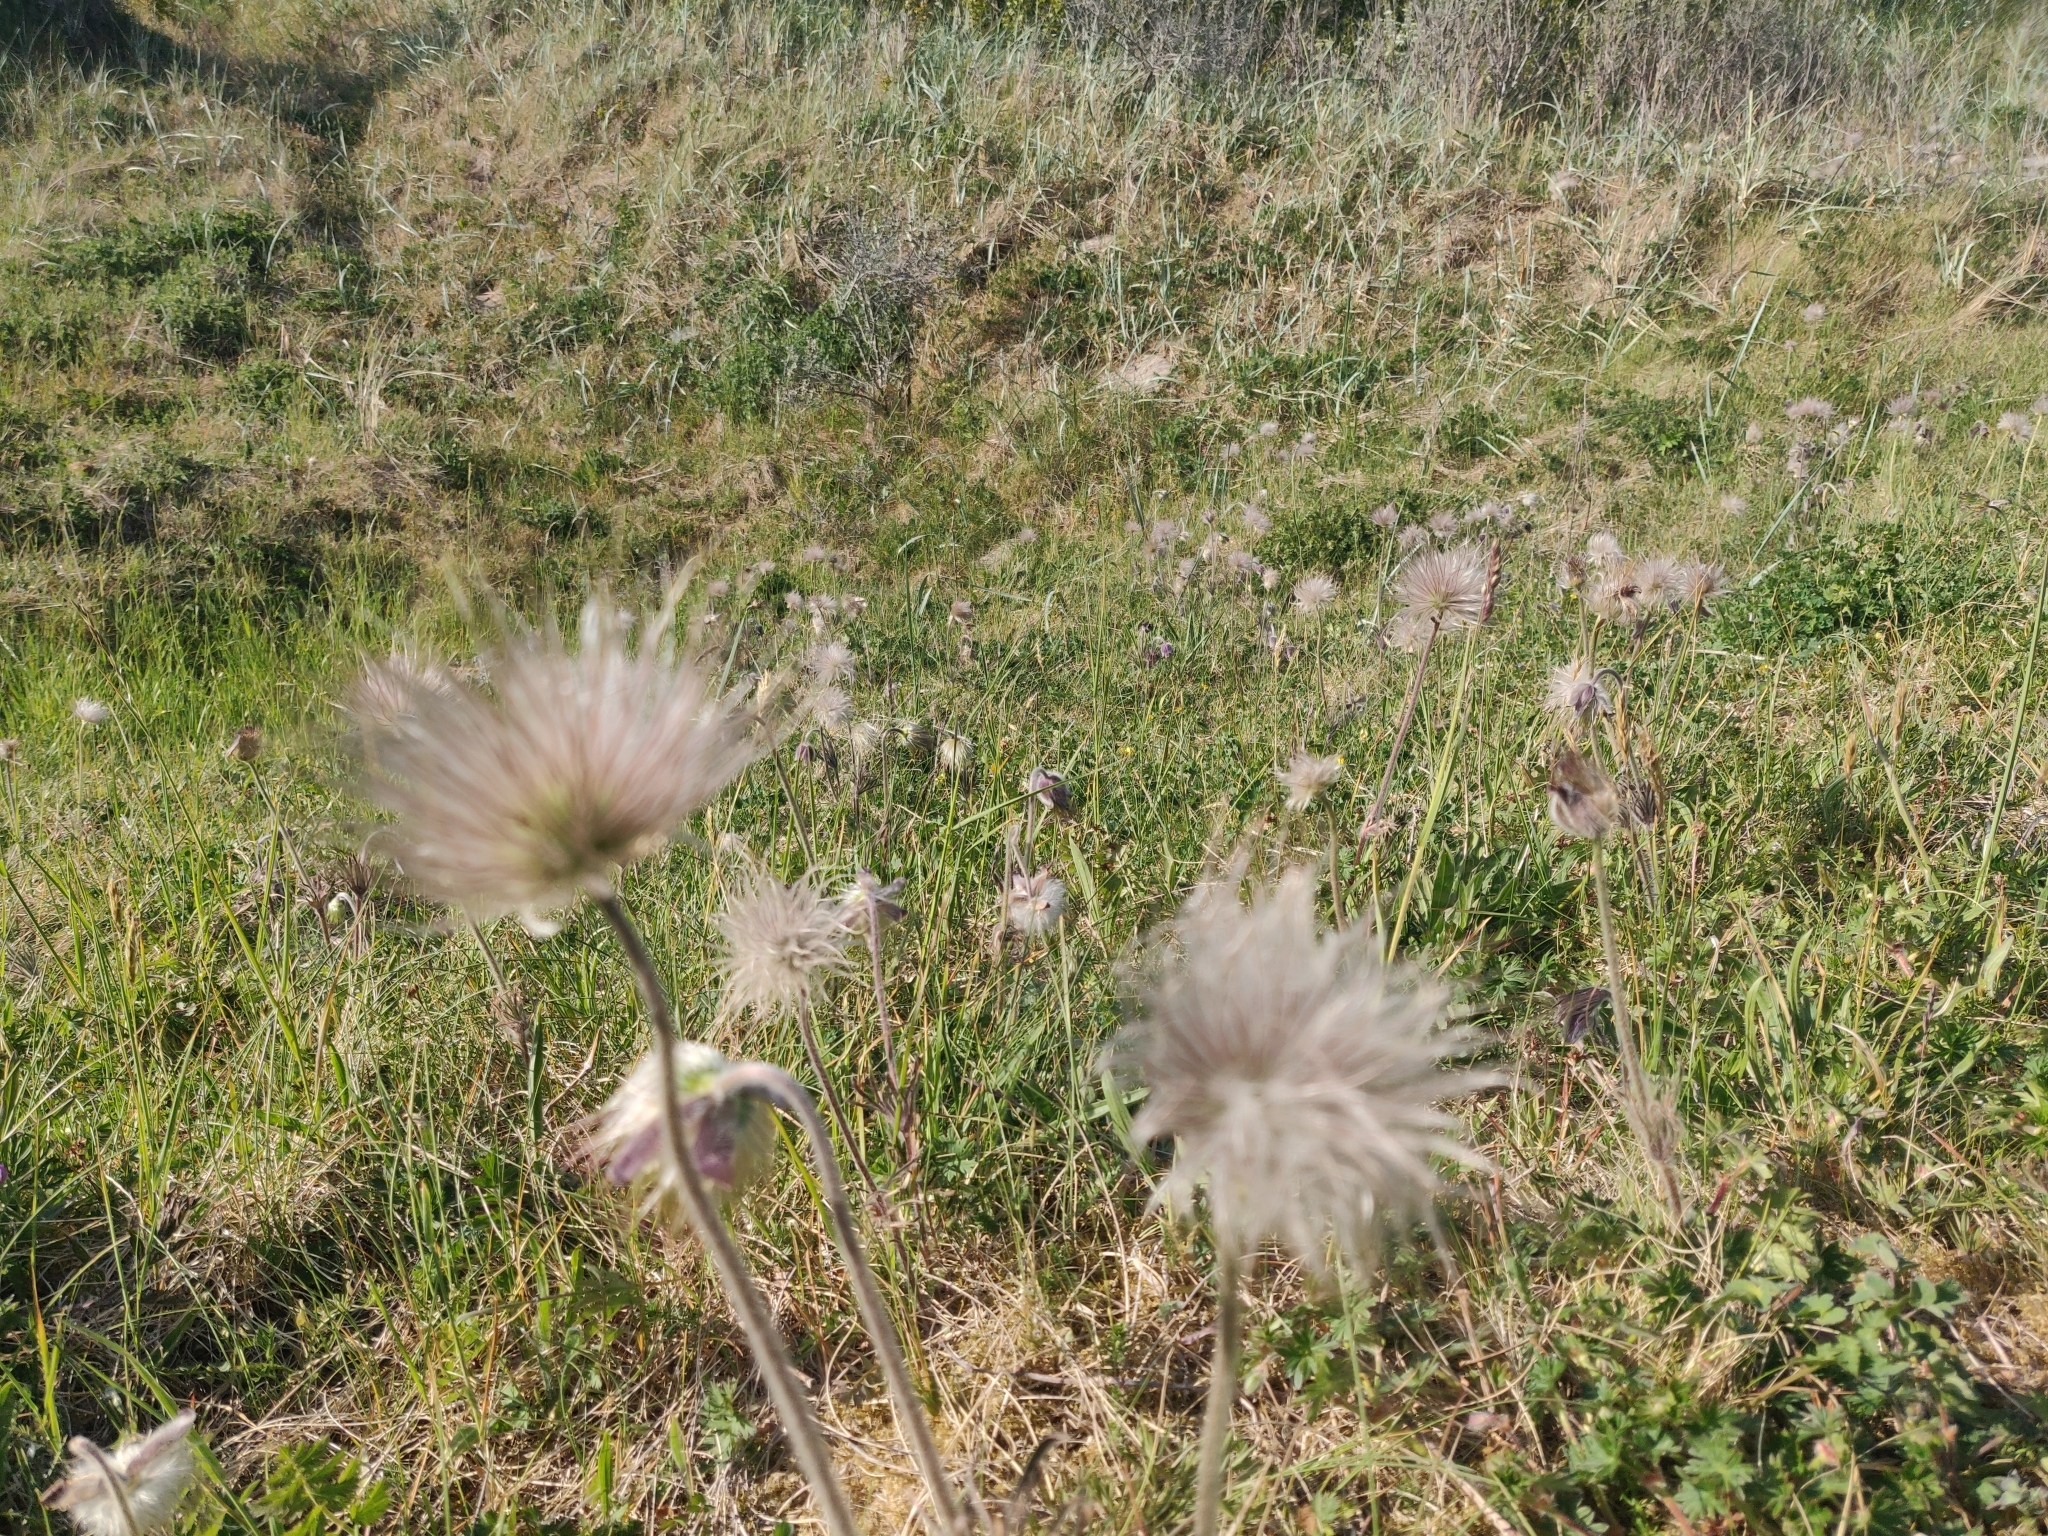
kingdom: Plantae
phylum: Tracheophyta
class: Magnoliopsida
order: Ranunculales
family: Ranunculaceae
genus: Pulsatilla
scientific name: Pulsatilla pratensis
